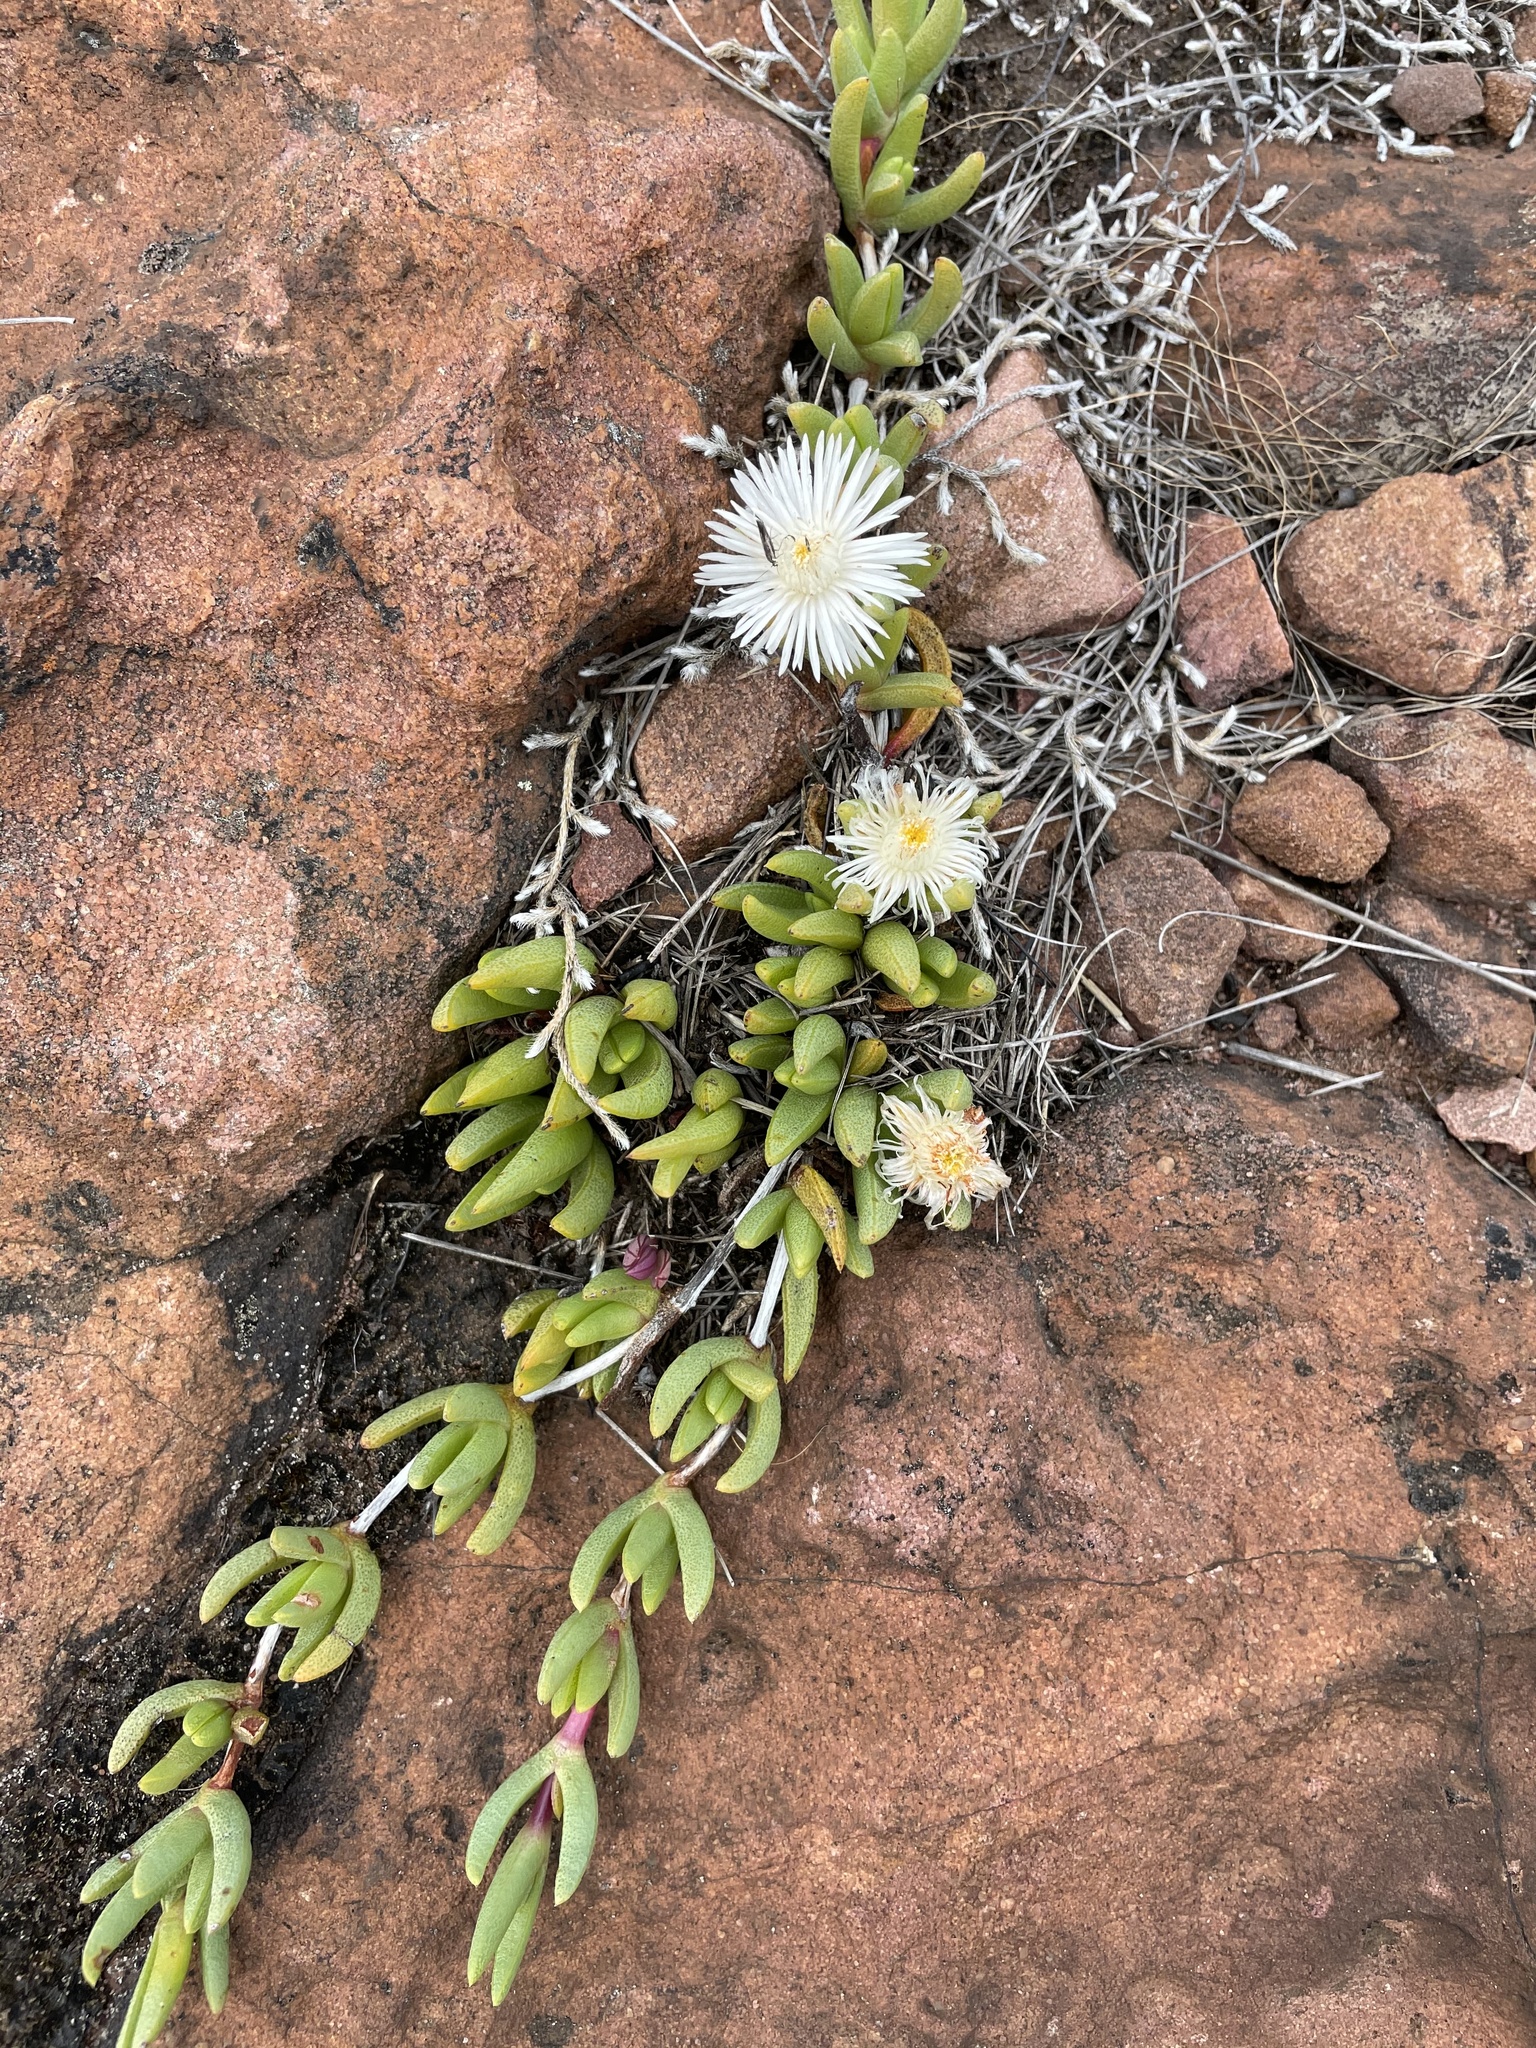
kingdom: Plantae
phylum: Tracheophyta
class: Magnoliopsida
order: Caryophyllales
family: Aizoaceae
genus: Khadia
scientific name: Khadia borealis
